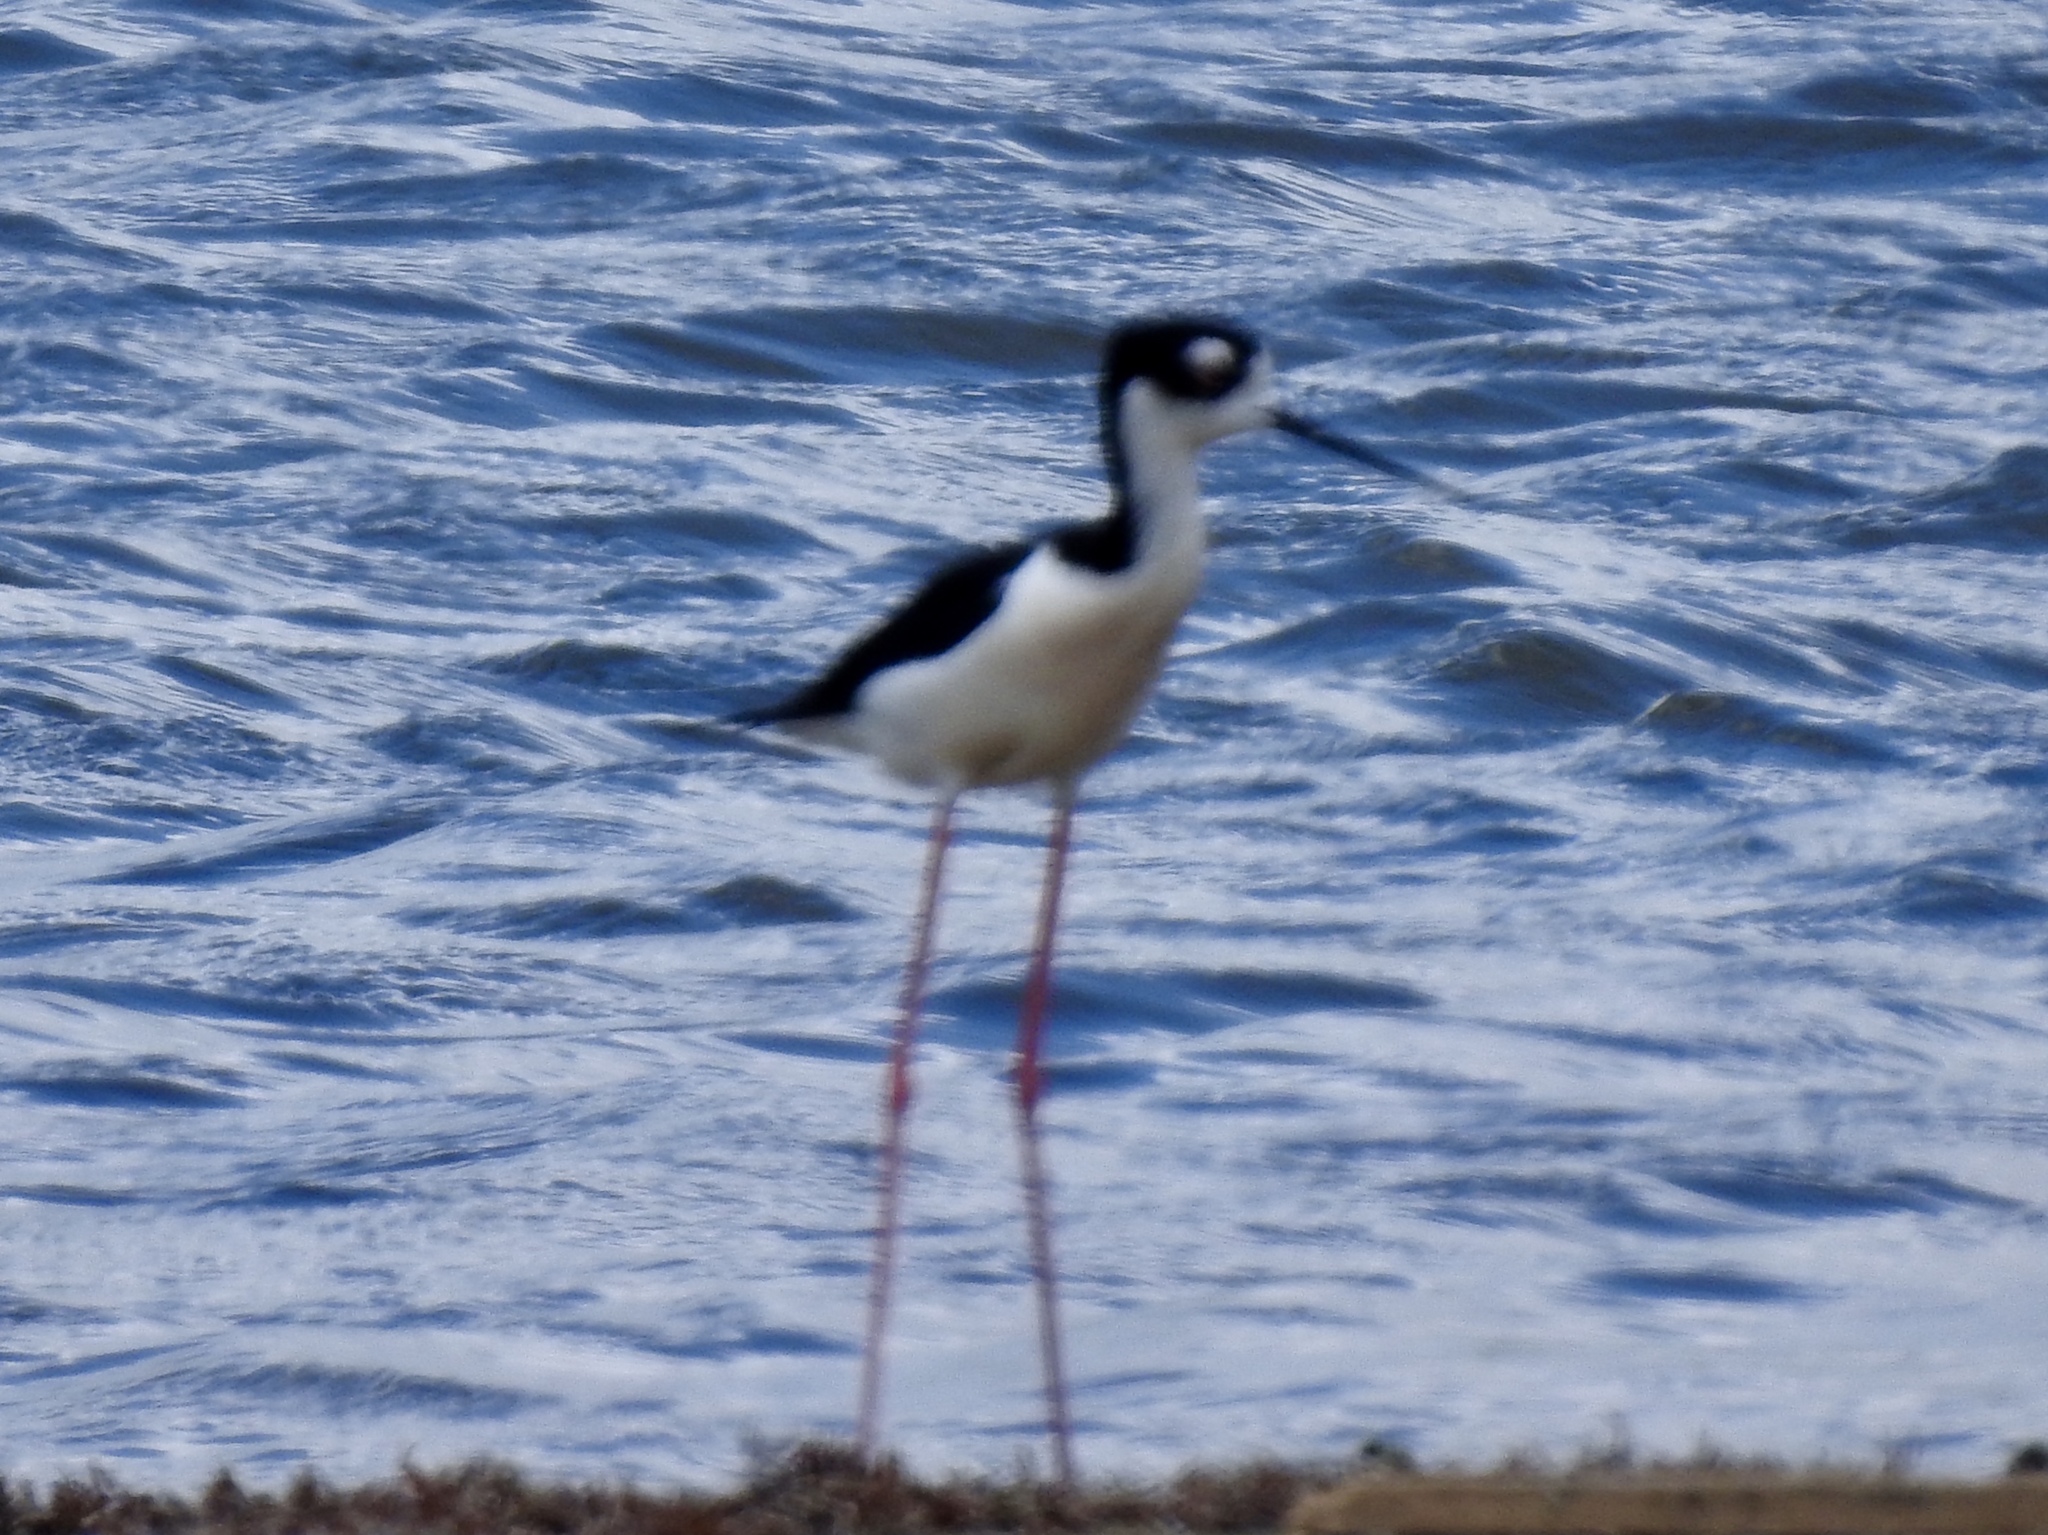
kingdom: Animalia
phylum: Chordata
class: Aves
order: Charadriiformes
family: Recurvirostridae
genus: Himantopus
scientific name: Himantopus mexicanus
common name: Black-necked stilt
